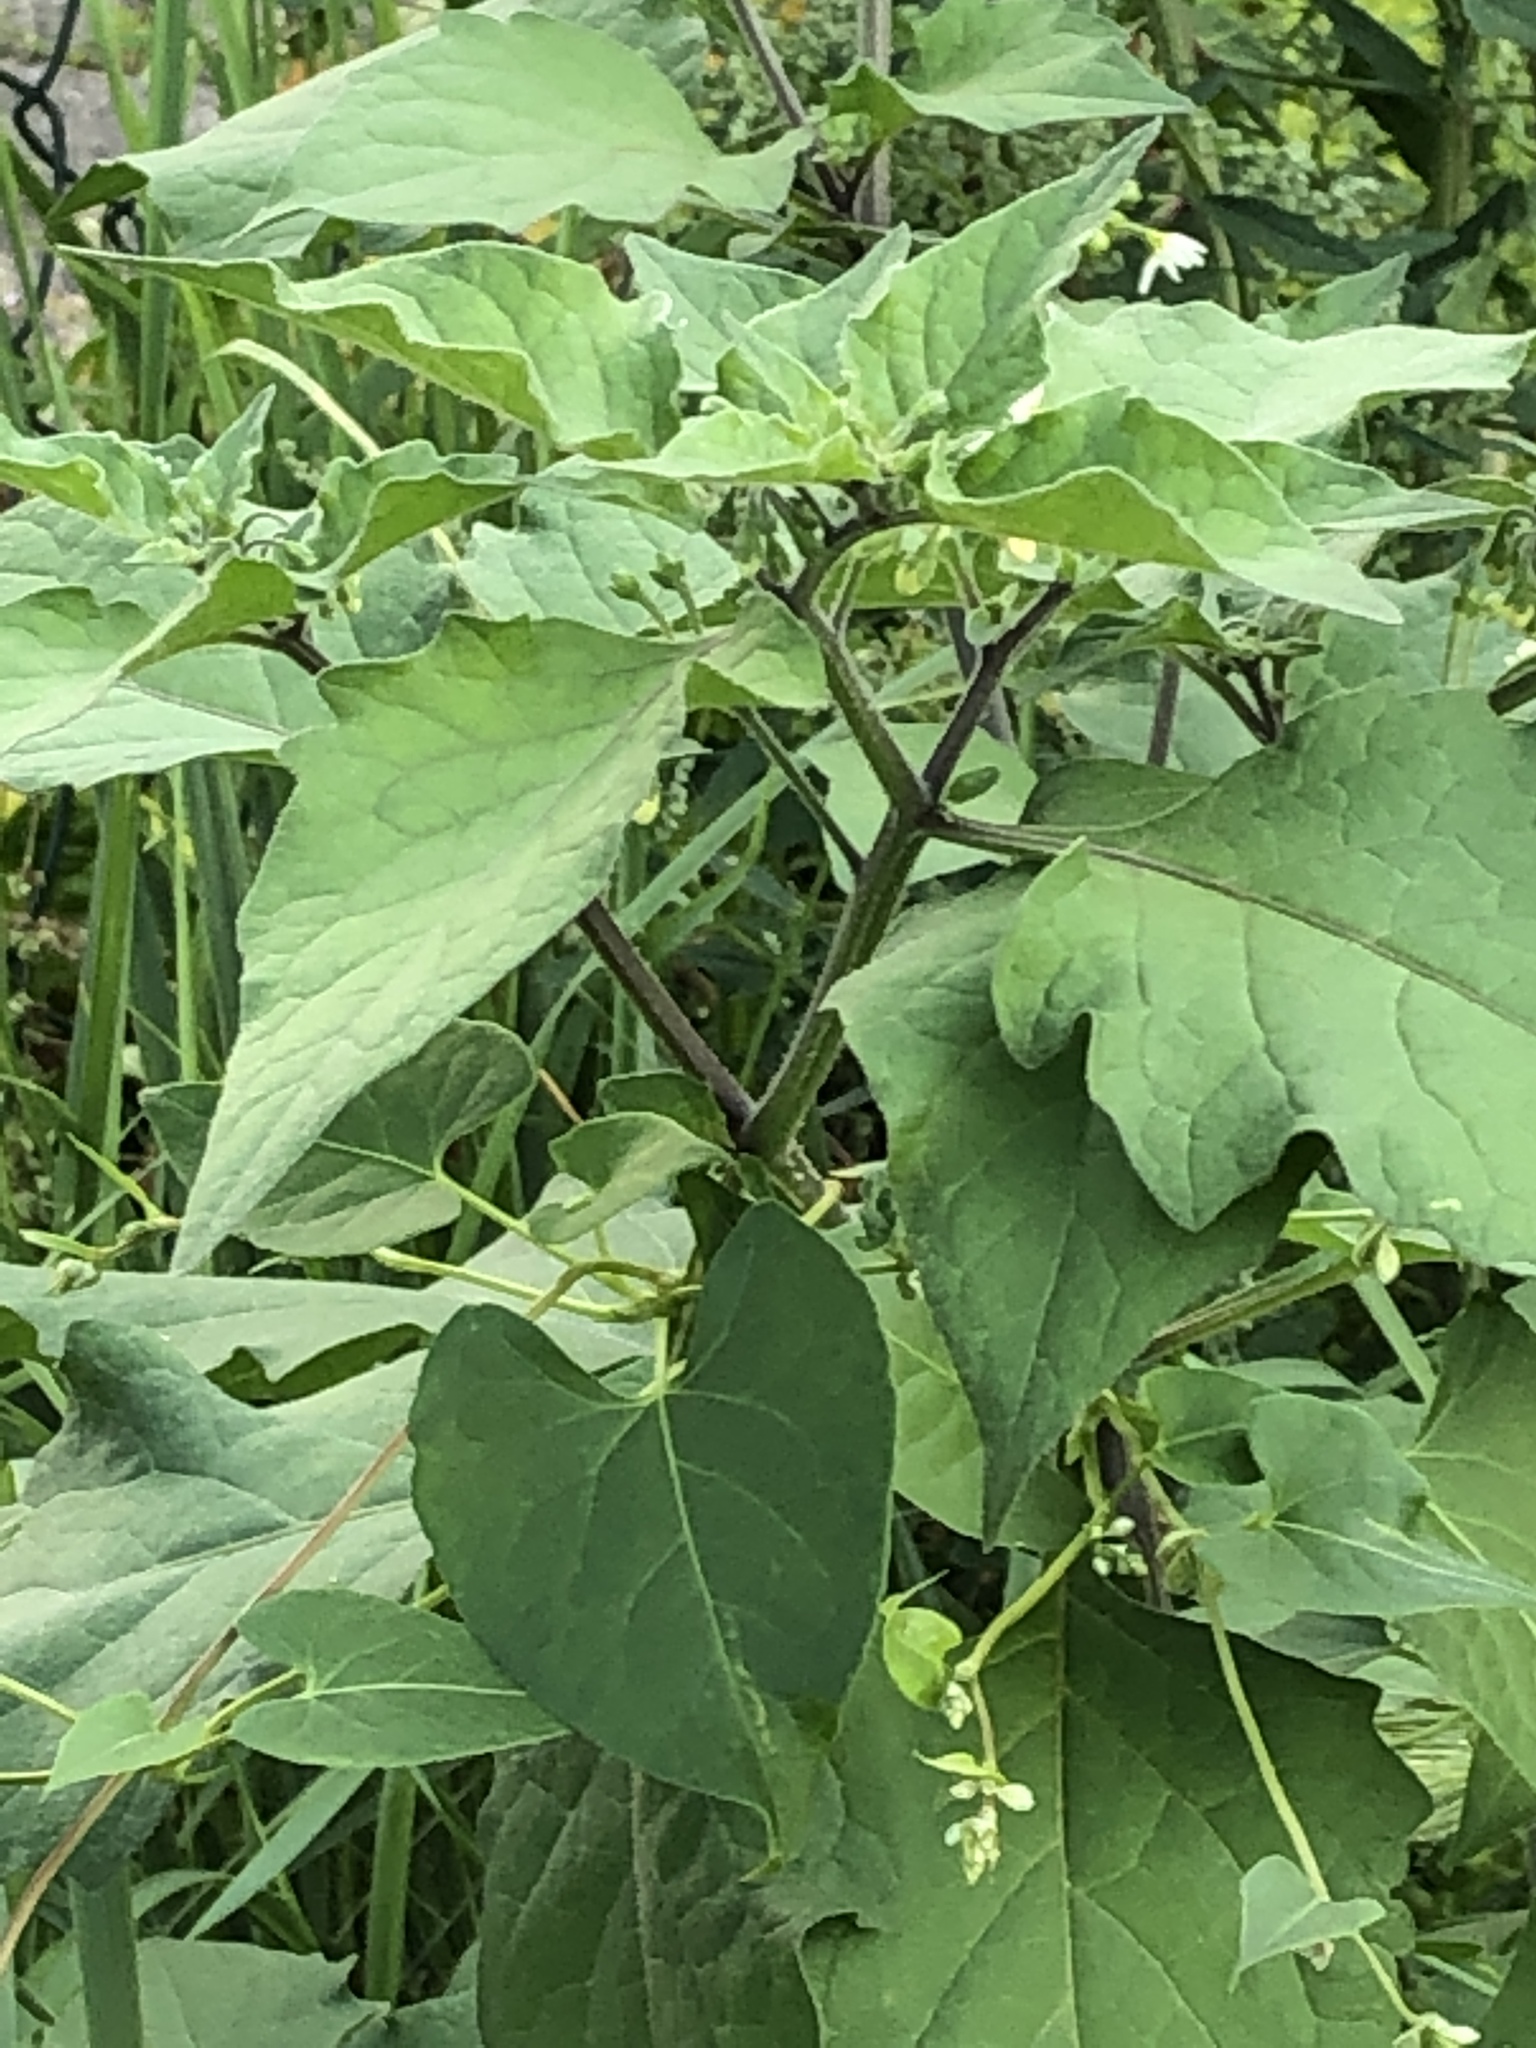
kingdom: Plantae
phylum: Tracheophyta
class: Magnoliopsida
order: Solanales
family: Solanaceae
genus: Solanum
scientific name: Solanum nigrum
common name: Black nightshade
